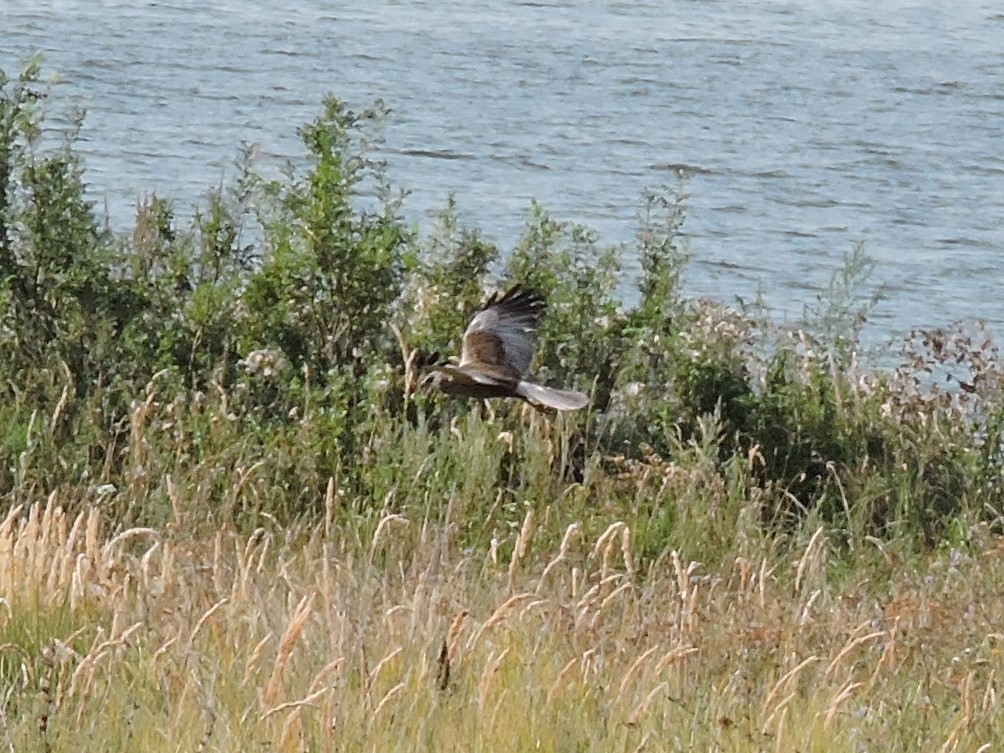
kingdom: Animalia
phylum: Chordata
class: Aves
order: Accipitriformes
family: Accipitridae
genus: Circus
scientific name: Circus aeruginosus
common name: Western marsh harrier
